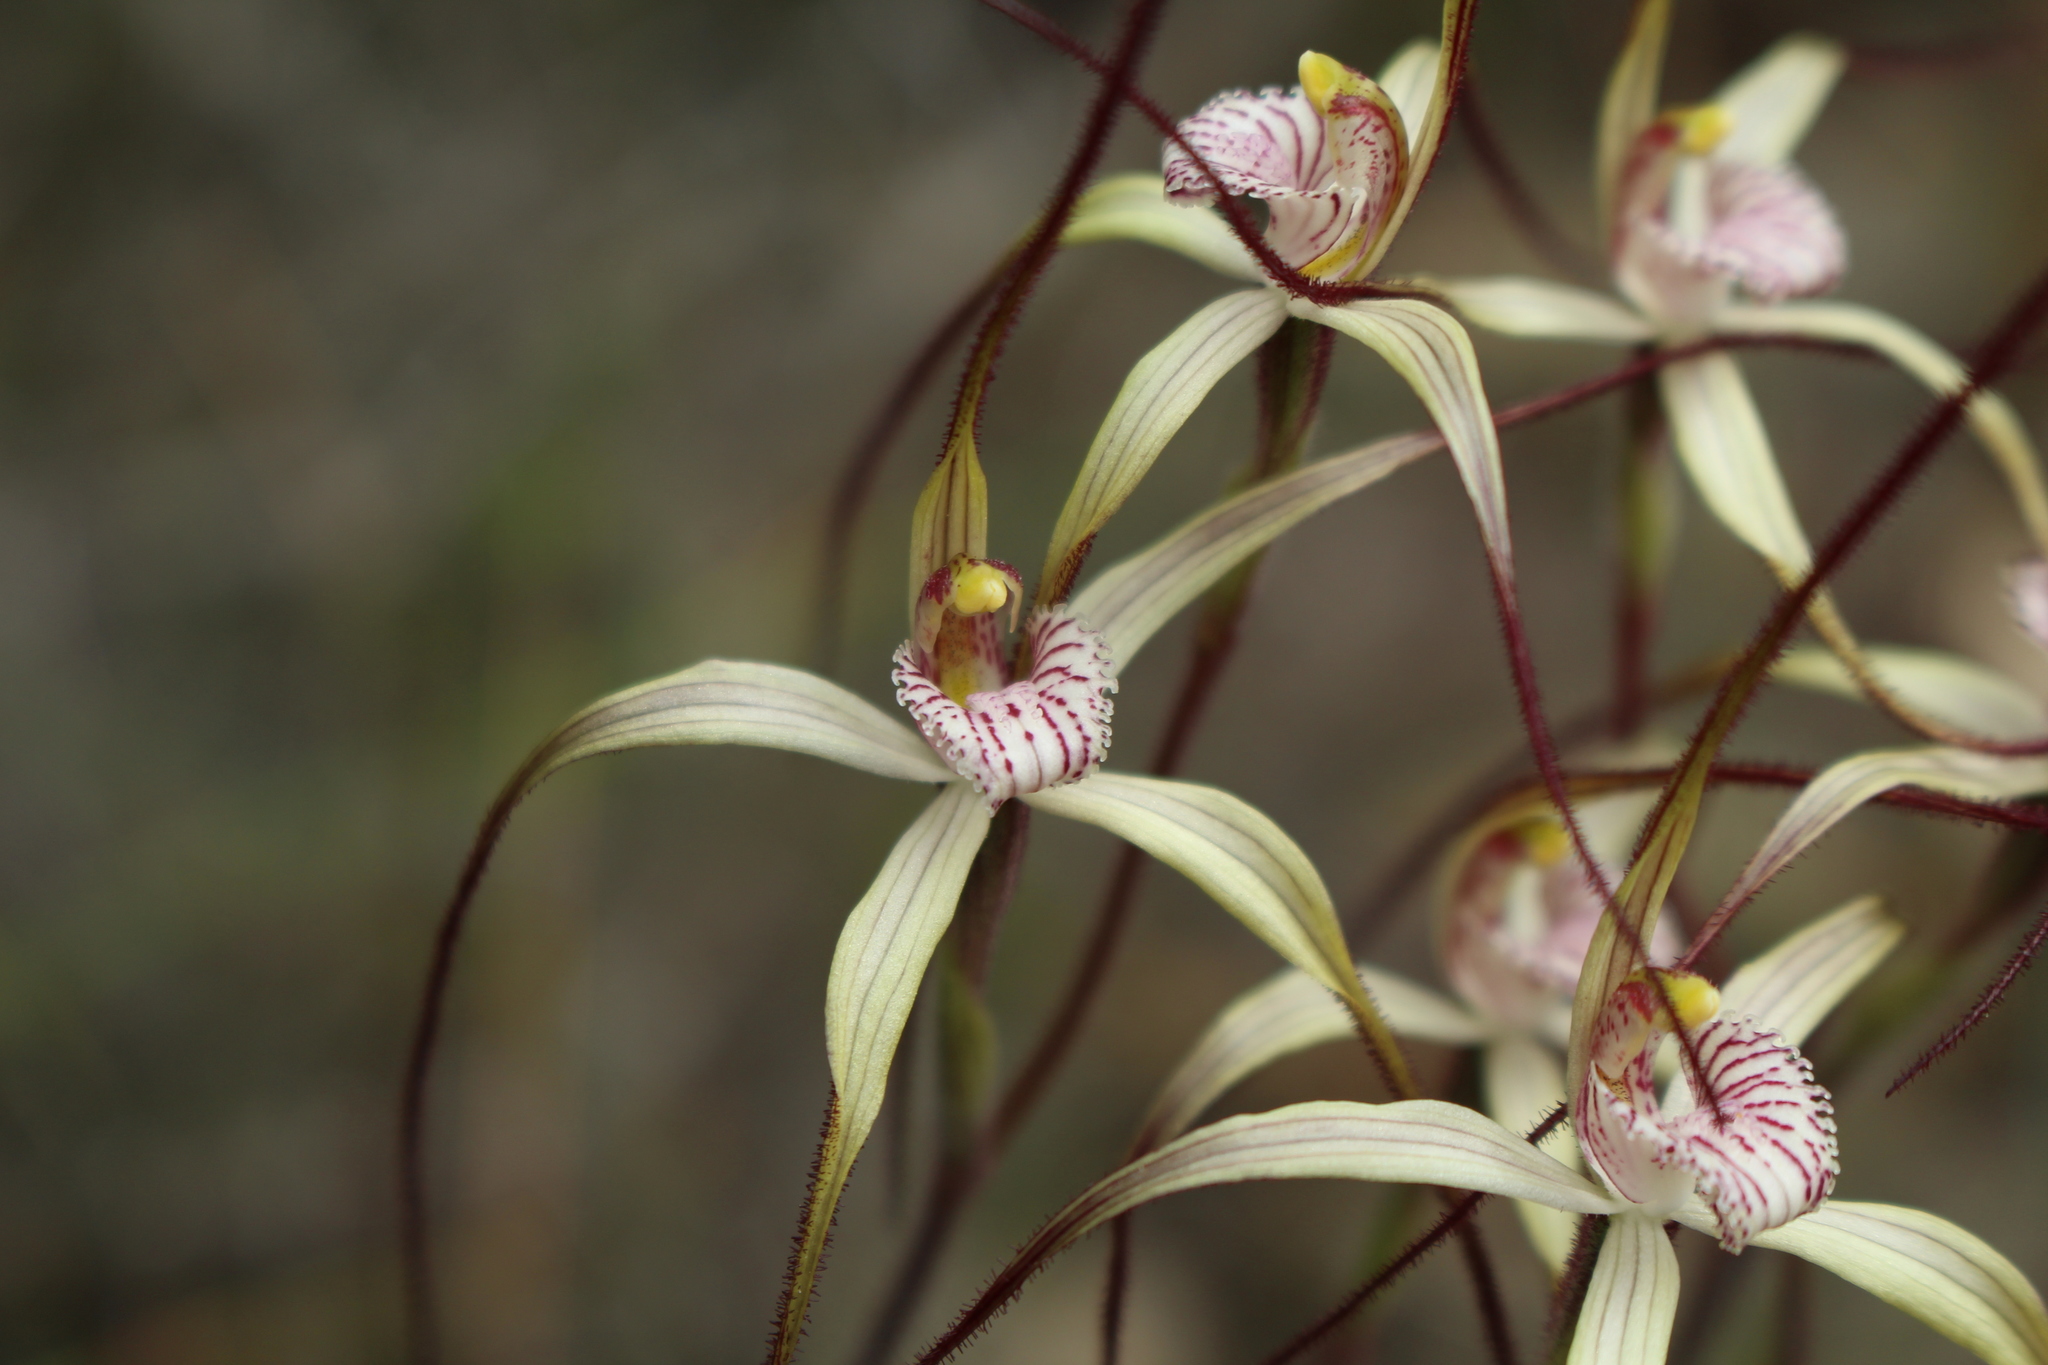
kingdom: Plantae
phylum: Tracheophyta
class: Liliopsida
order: Asparagales
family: Orchidaceae
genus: Caladenia
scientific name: Caladenia straminichila
